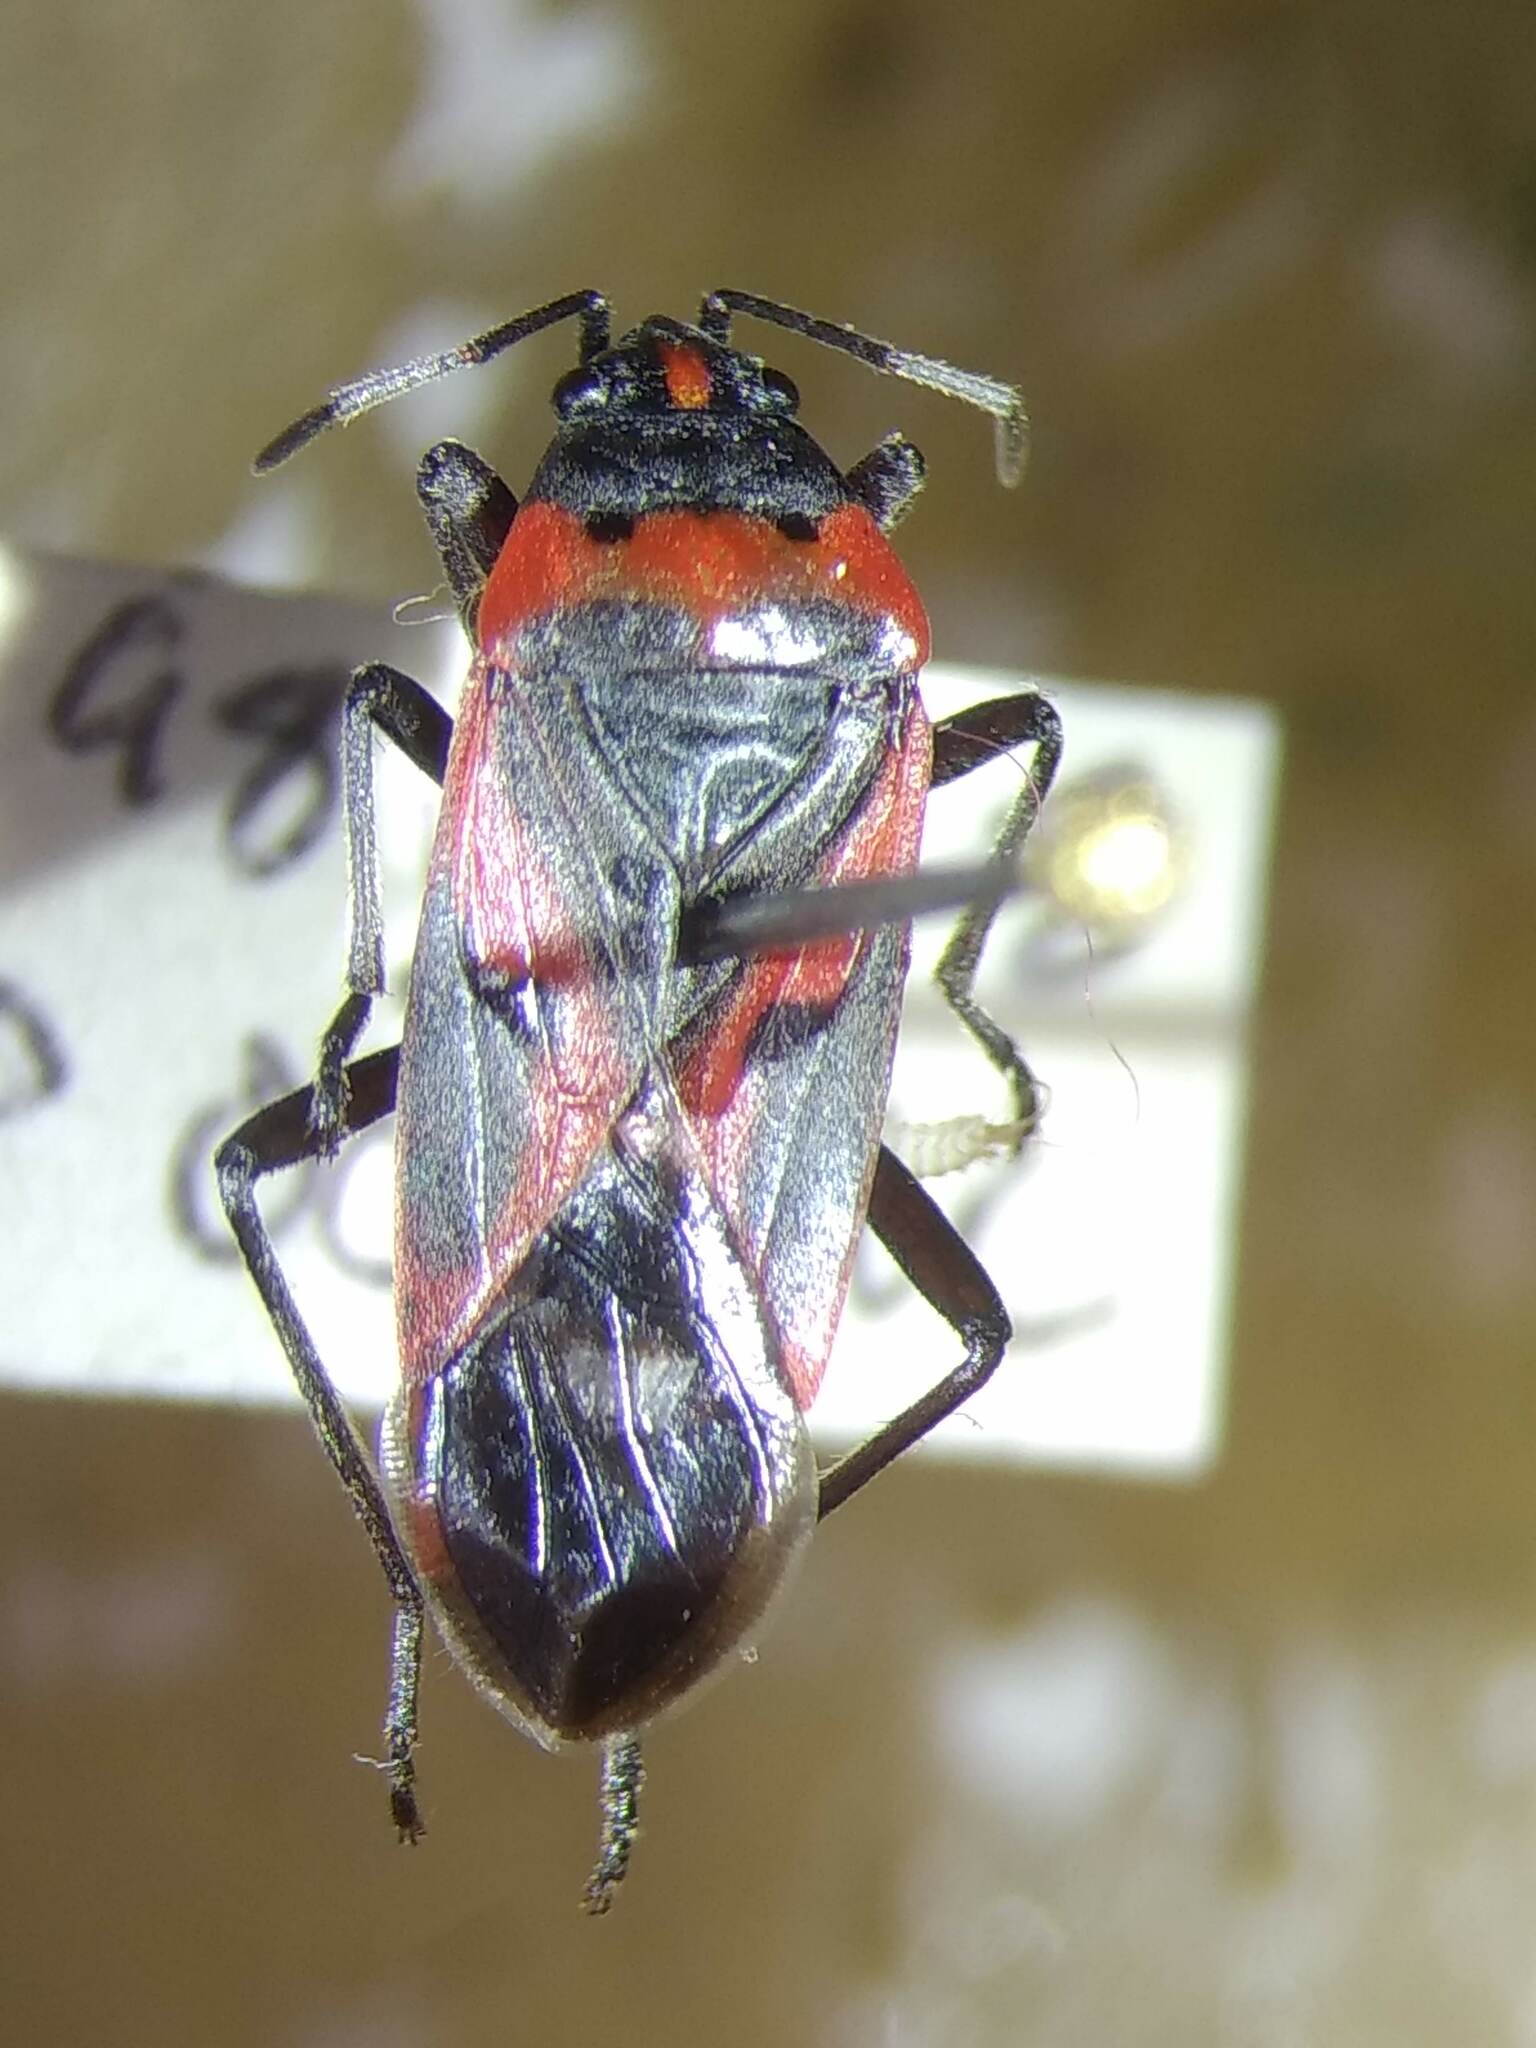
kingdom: Animalia
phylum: Arthropoda
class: Insecta
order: Hemiptera
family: Lygaeidae
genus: Lygaeus
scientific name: Lygaeus kalmii
